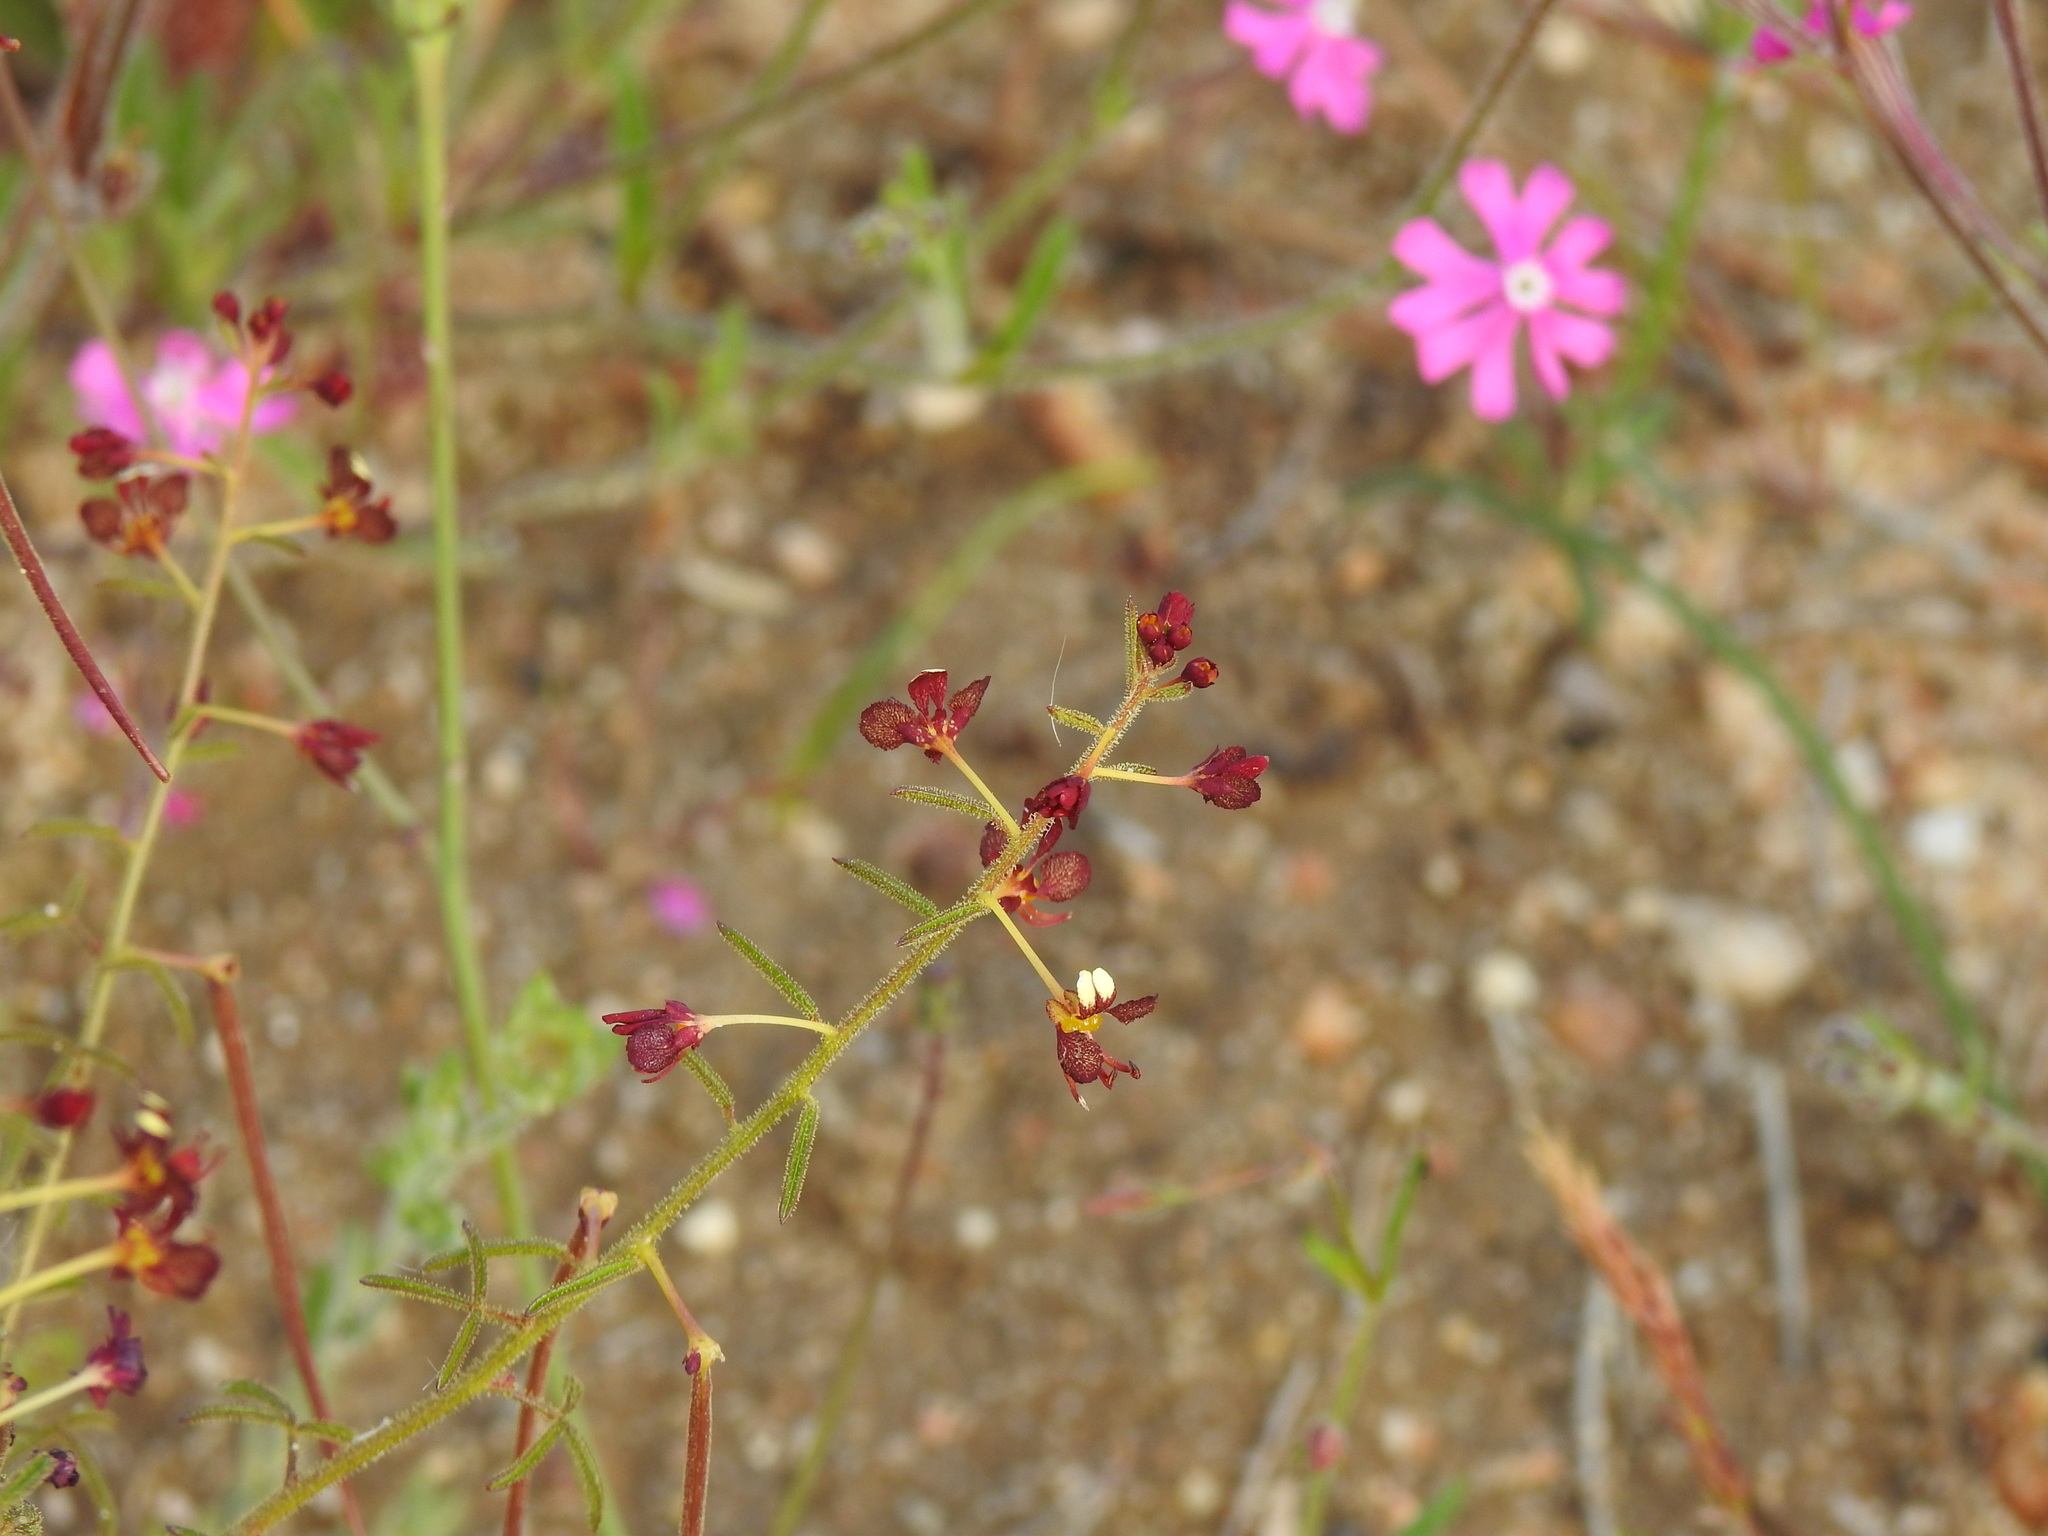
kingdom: Plantae
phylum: Tracheophyta
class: Magnoliopsida
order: Brassicales
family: Cleomaceae
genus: Cleome
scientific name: Cleome violacea
